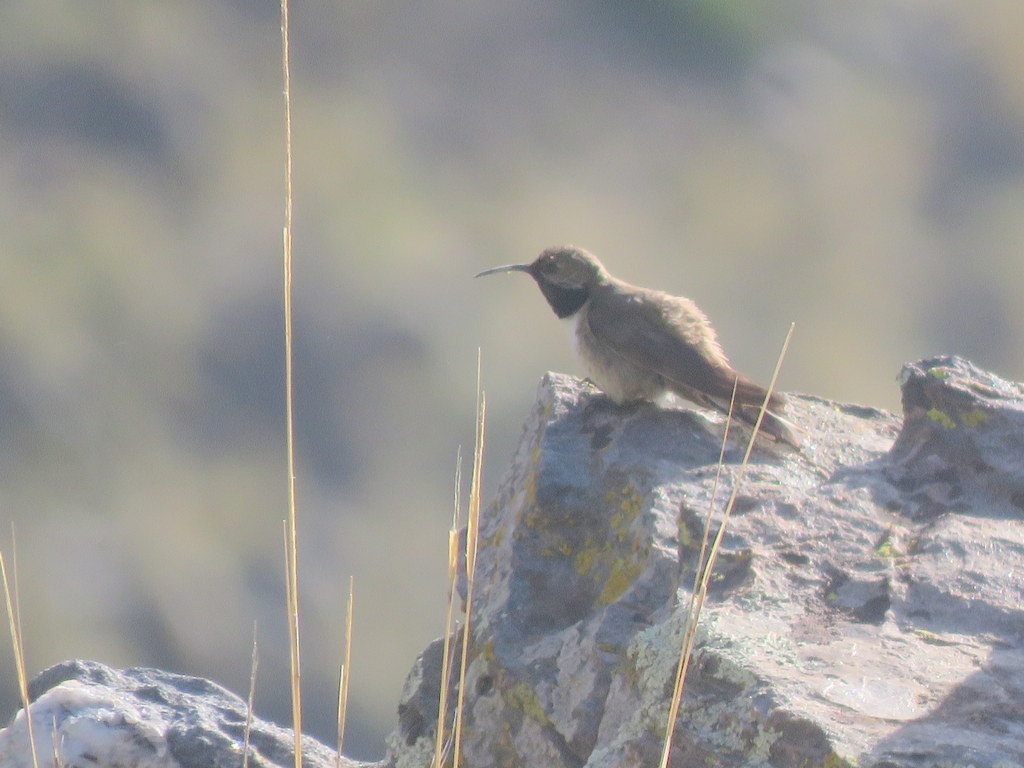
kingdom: Animalia
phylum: Chordata
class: Aves
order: Apodiformes
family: Trochilidae
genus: Oreotrochilus
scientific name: Oreotrochilus leucopleurus
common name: White-sided hillstar
